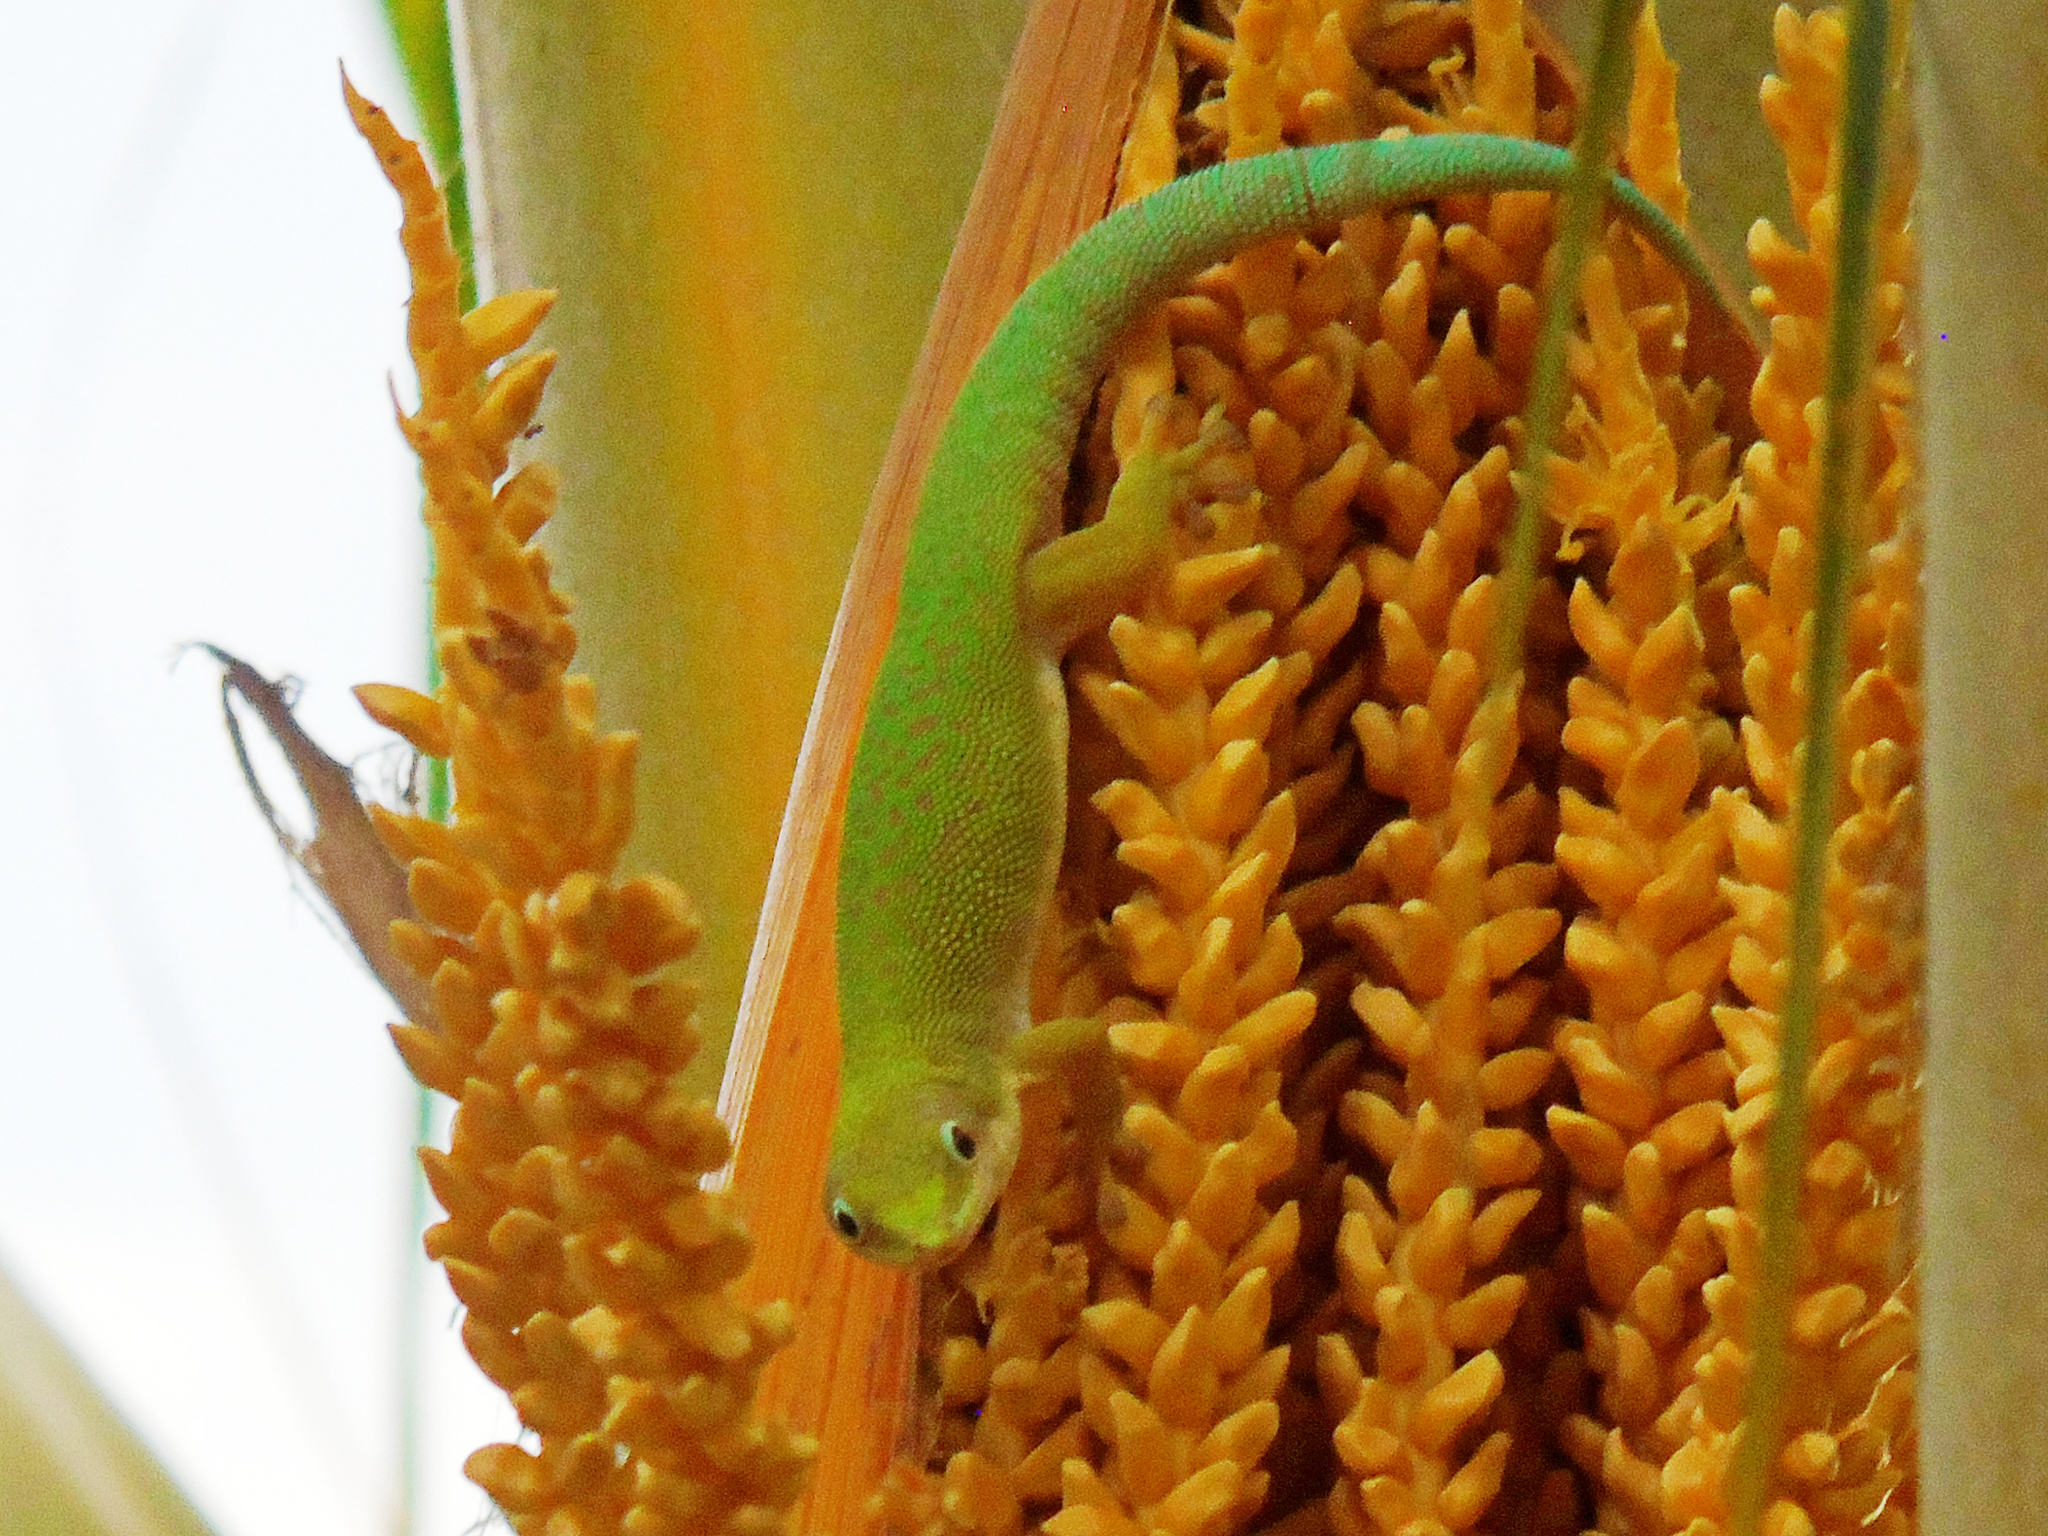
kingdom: Animalia
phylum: Chordata
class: Squamata
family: Gekkonidae
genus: Phelsuma
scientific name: Phelsuma dubia
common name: Zanzibar day gecko
